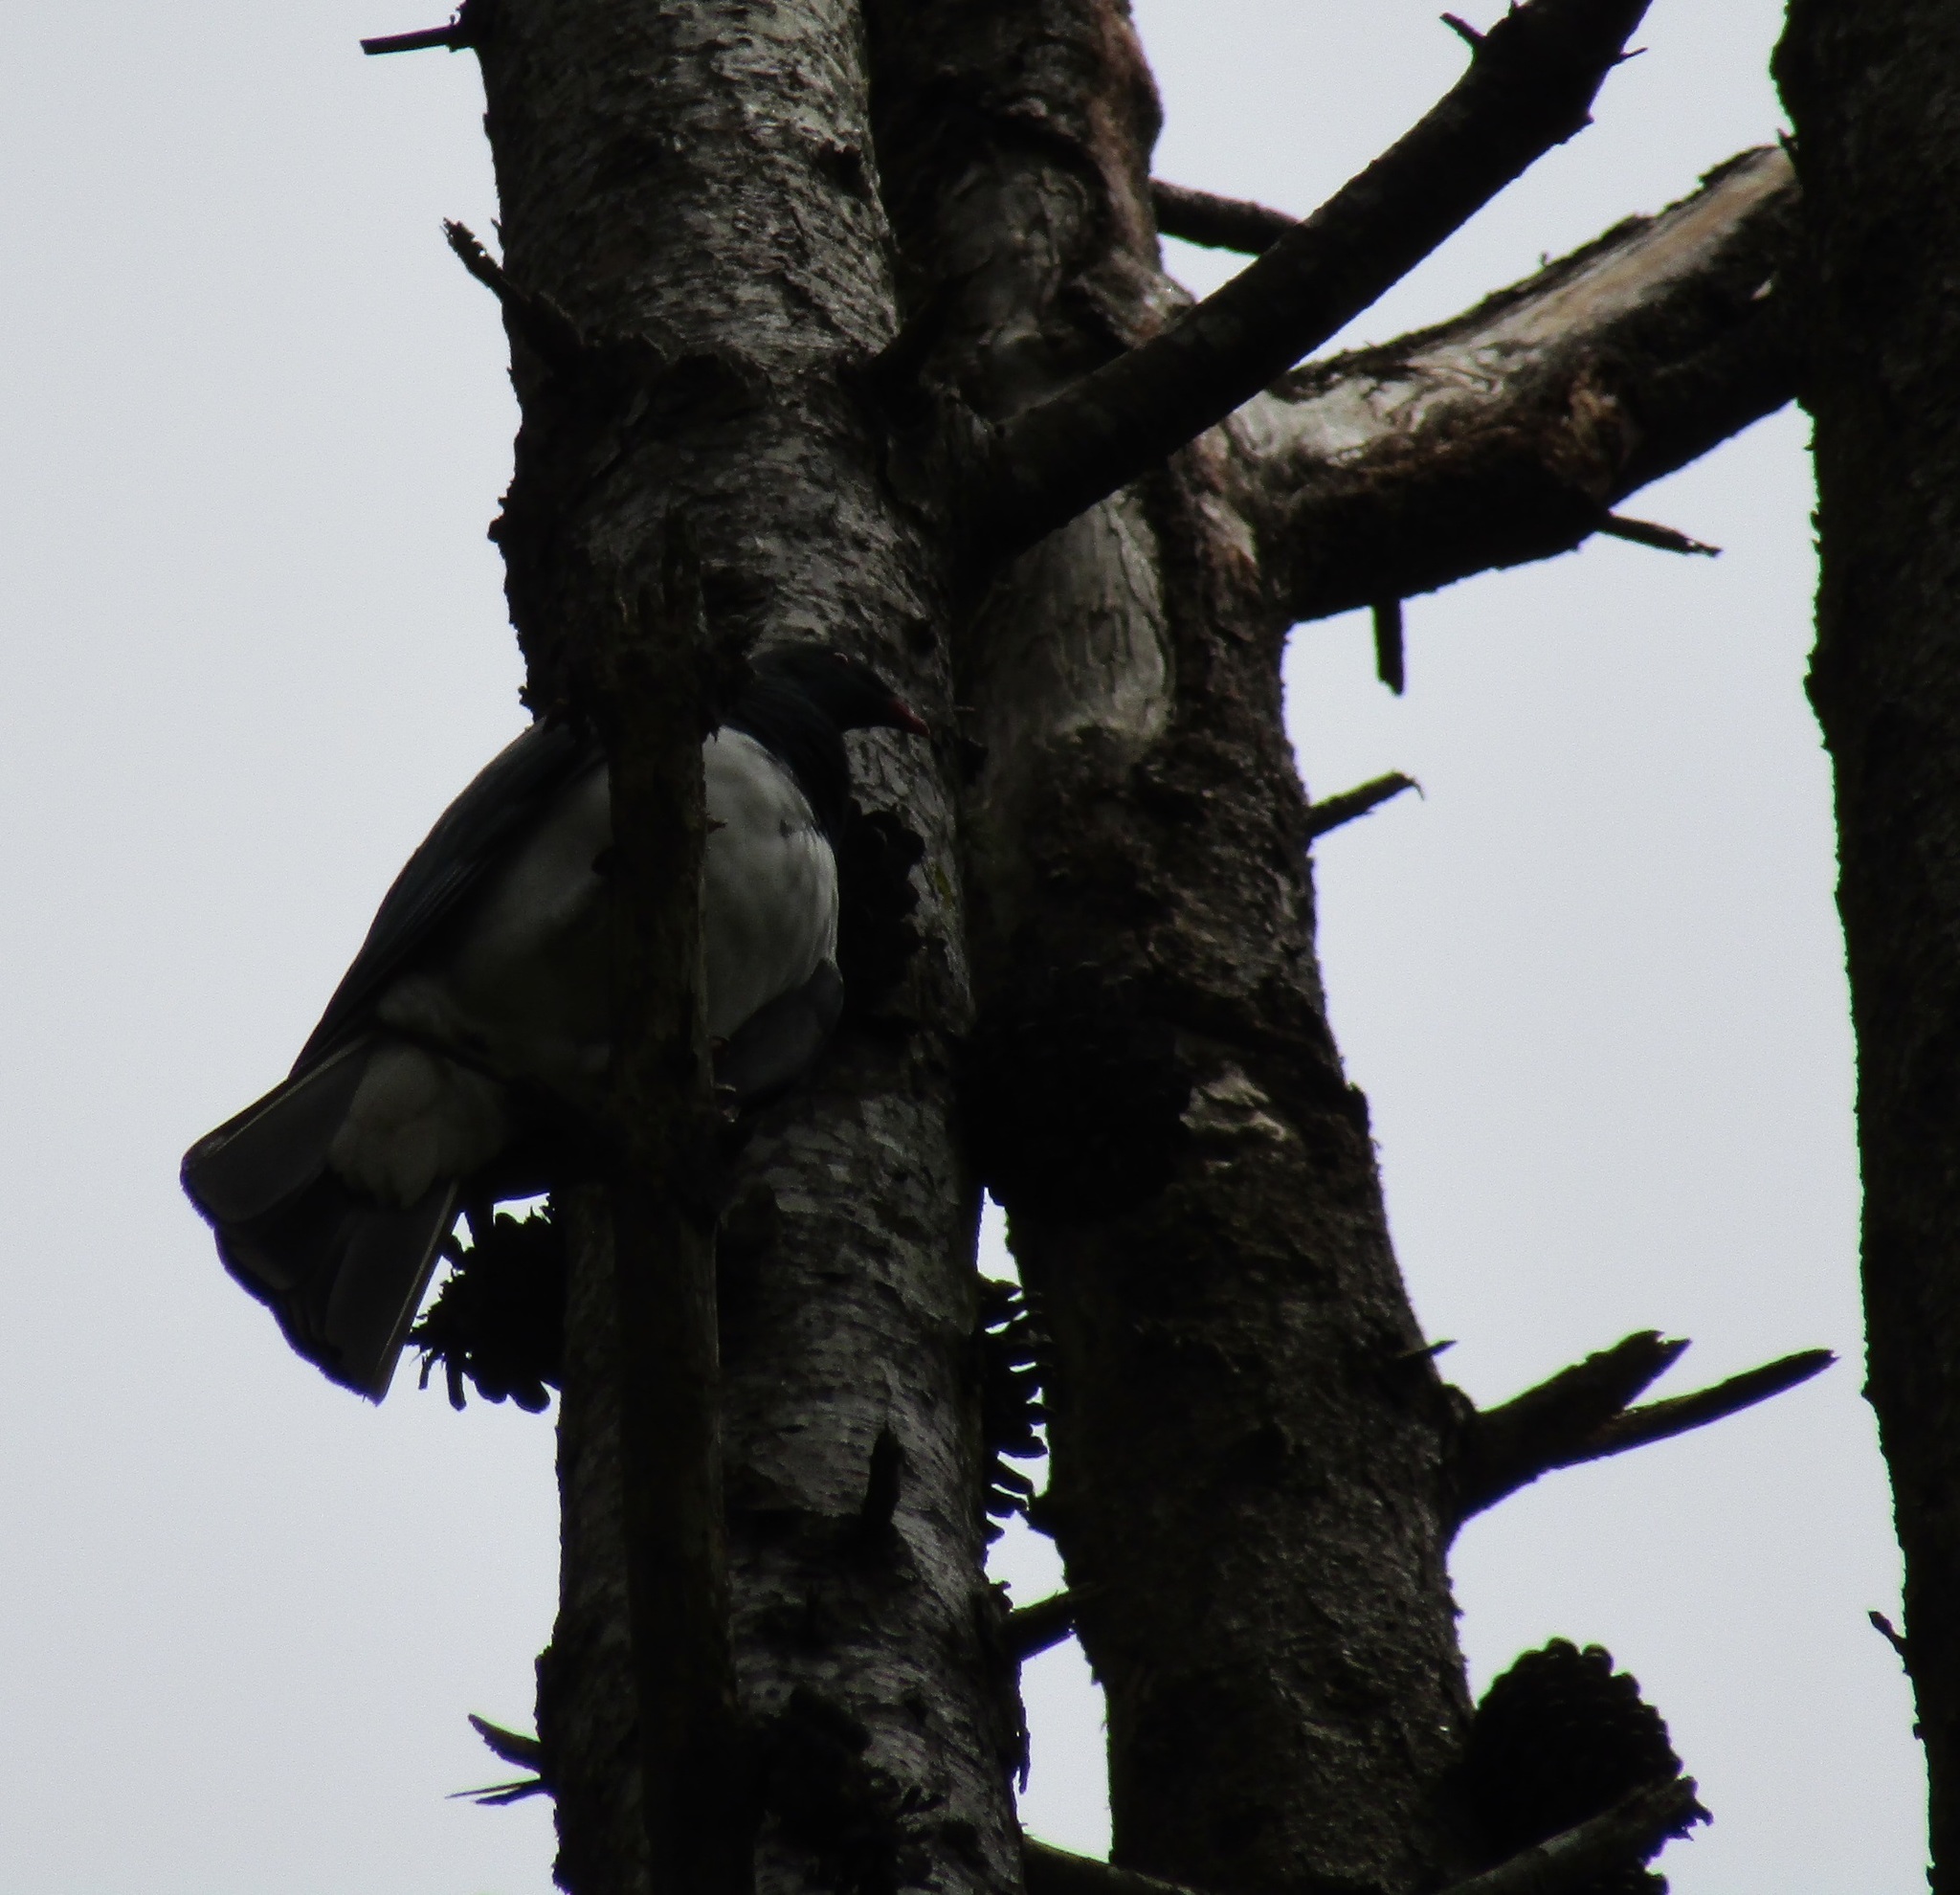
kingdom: Animalia
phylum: Chordata
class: Aves
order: Columbiformes
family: Columbidae
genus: Hemiphaga
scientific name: Hemiphaga novaeseelandiae
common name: New zealand pigeon
